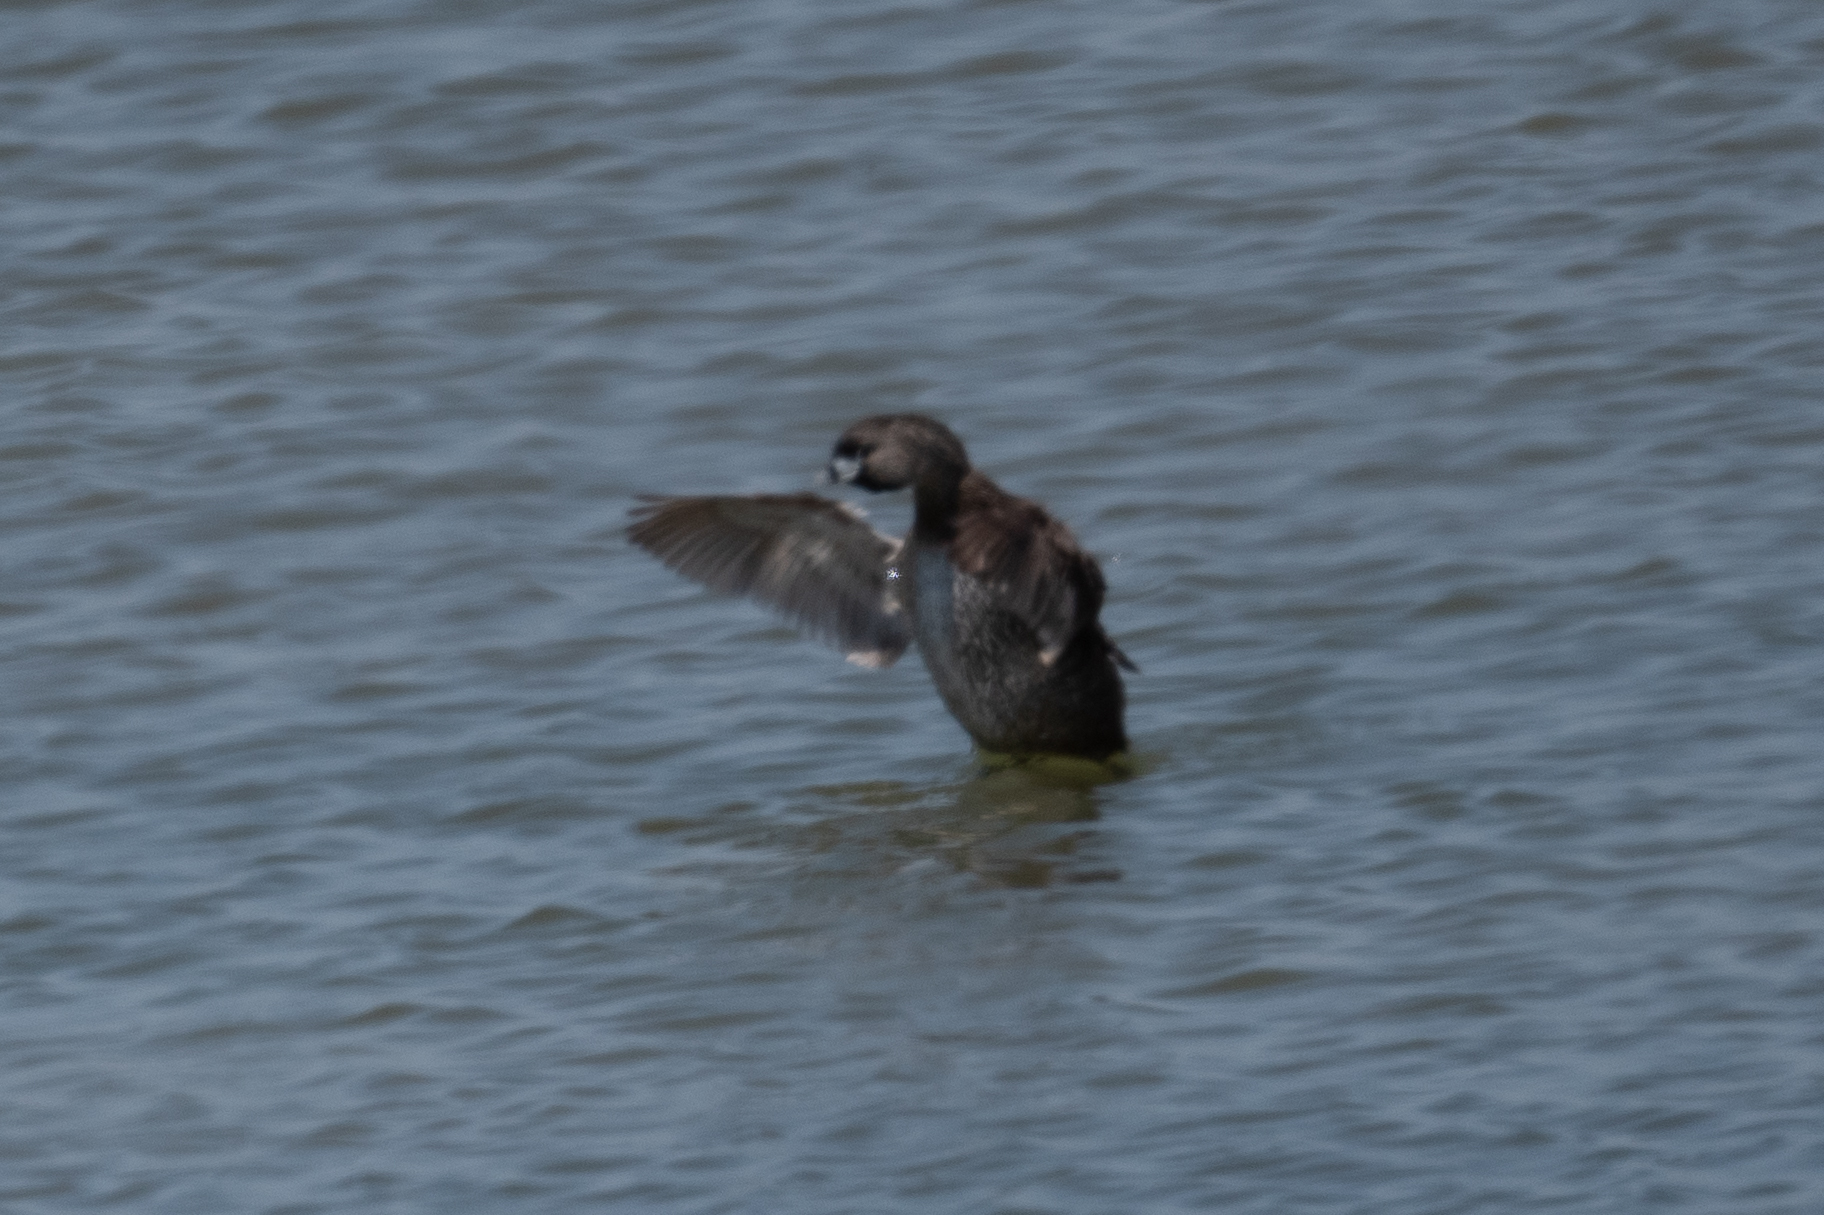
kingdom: Animalia
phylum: Chordata
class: Aves
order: Podicipediformes
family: Podicipedidae
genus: Podilymbus
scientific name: Podilymbus podiceps
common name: Pied-billed grebe
